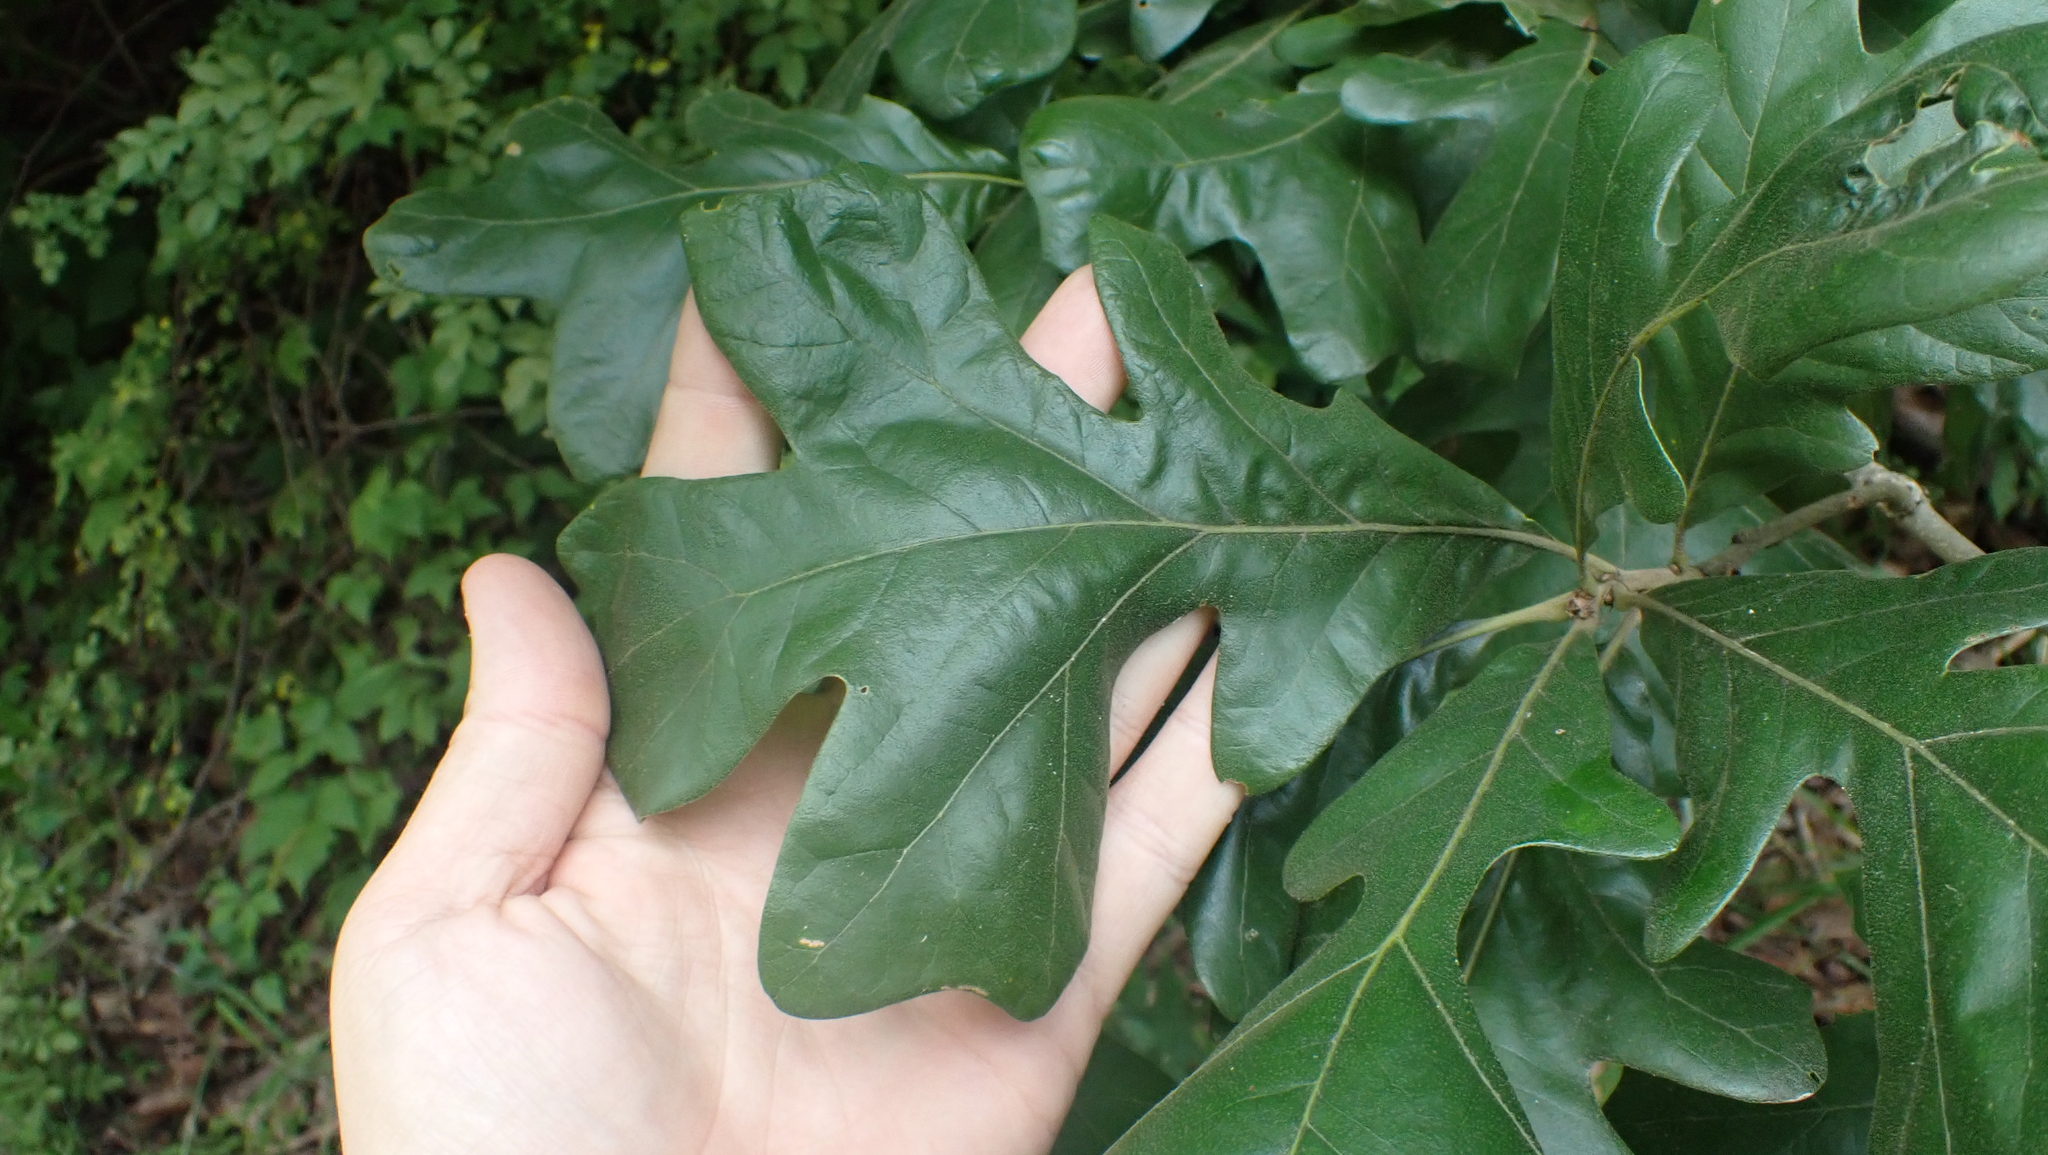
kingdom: Plantae
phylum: Tracheophyta
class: Magnoliopsida
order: Fagales
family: Fagaceae
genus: Quercus
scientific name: Quercus stellata
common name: Post oak
